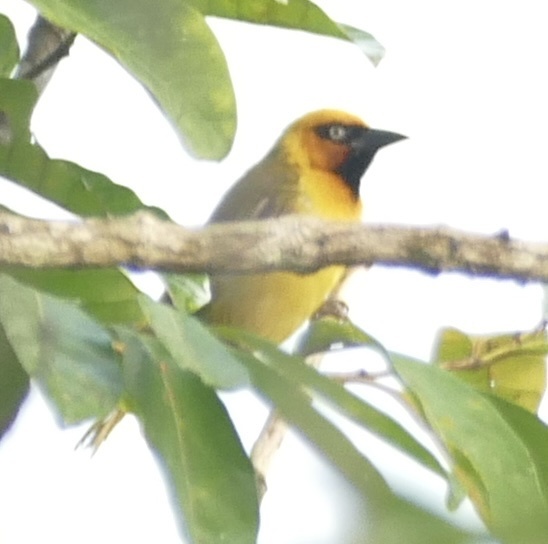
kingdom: Animalia
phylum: Chordata
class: Aves
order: Passeriformes
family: Ploceidae
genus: Ploceus
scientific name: Ploceus brachypterus
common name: Olive-naped weaver
